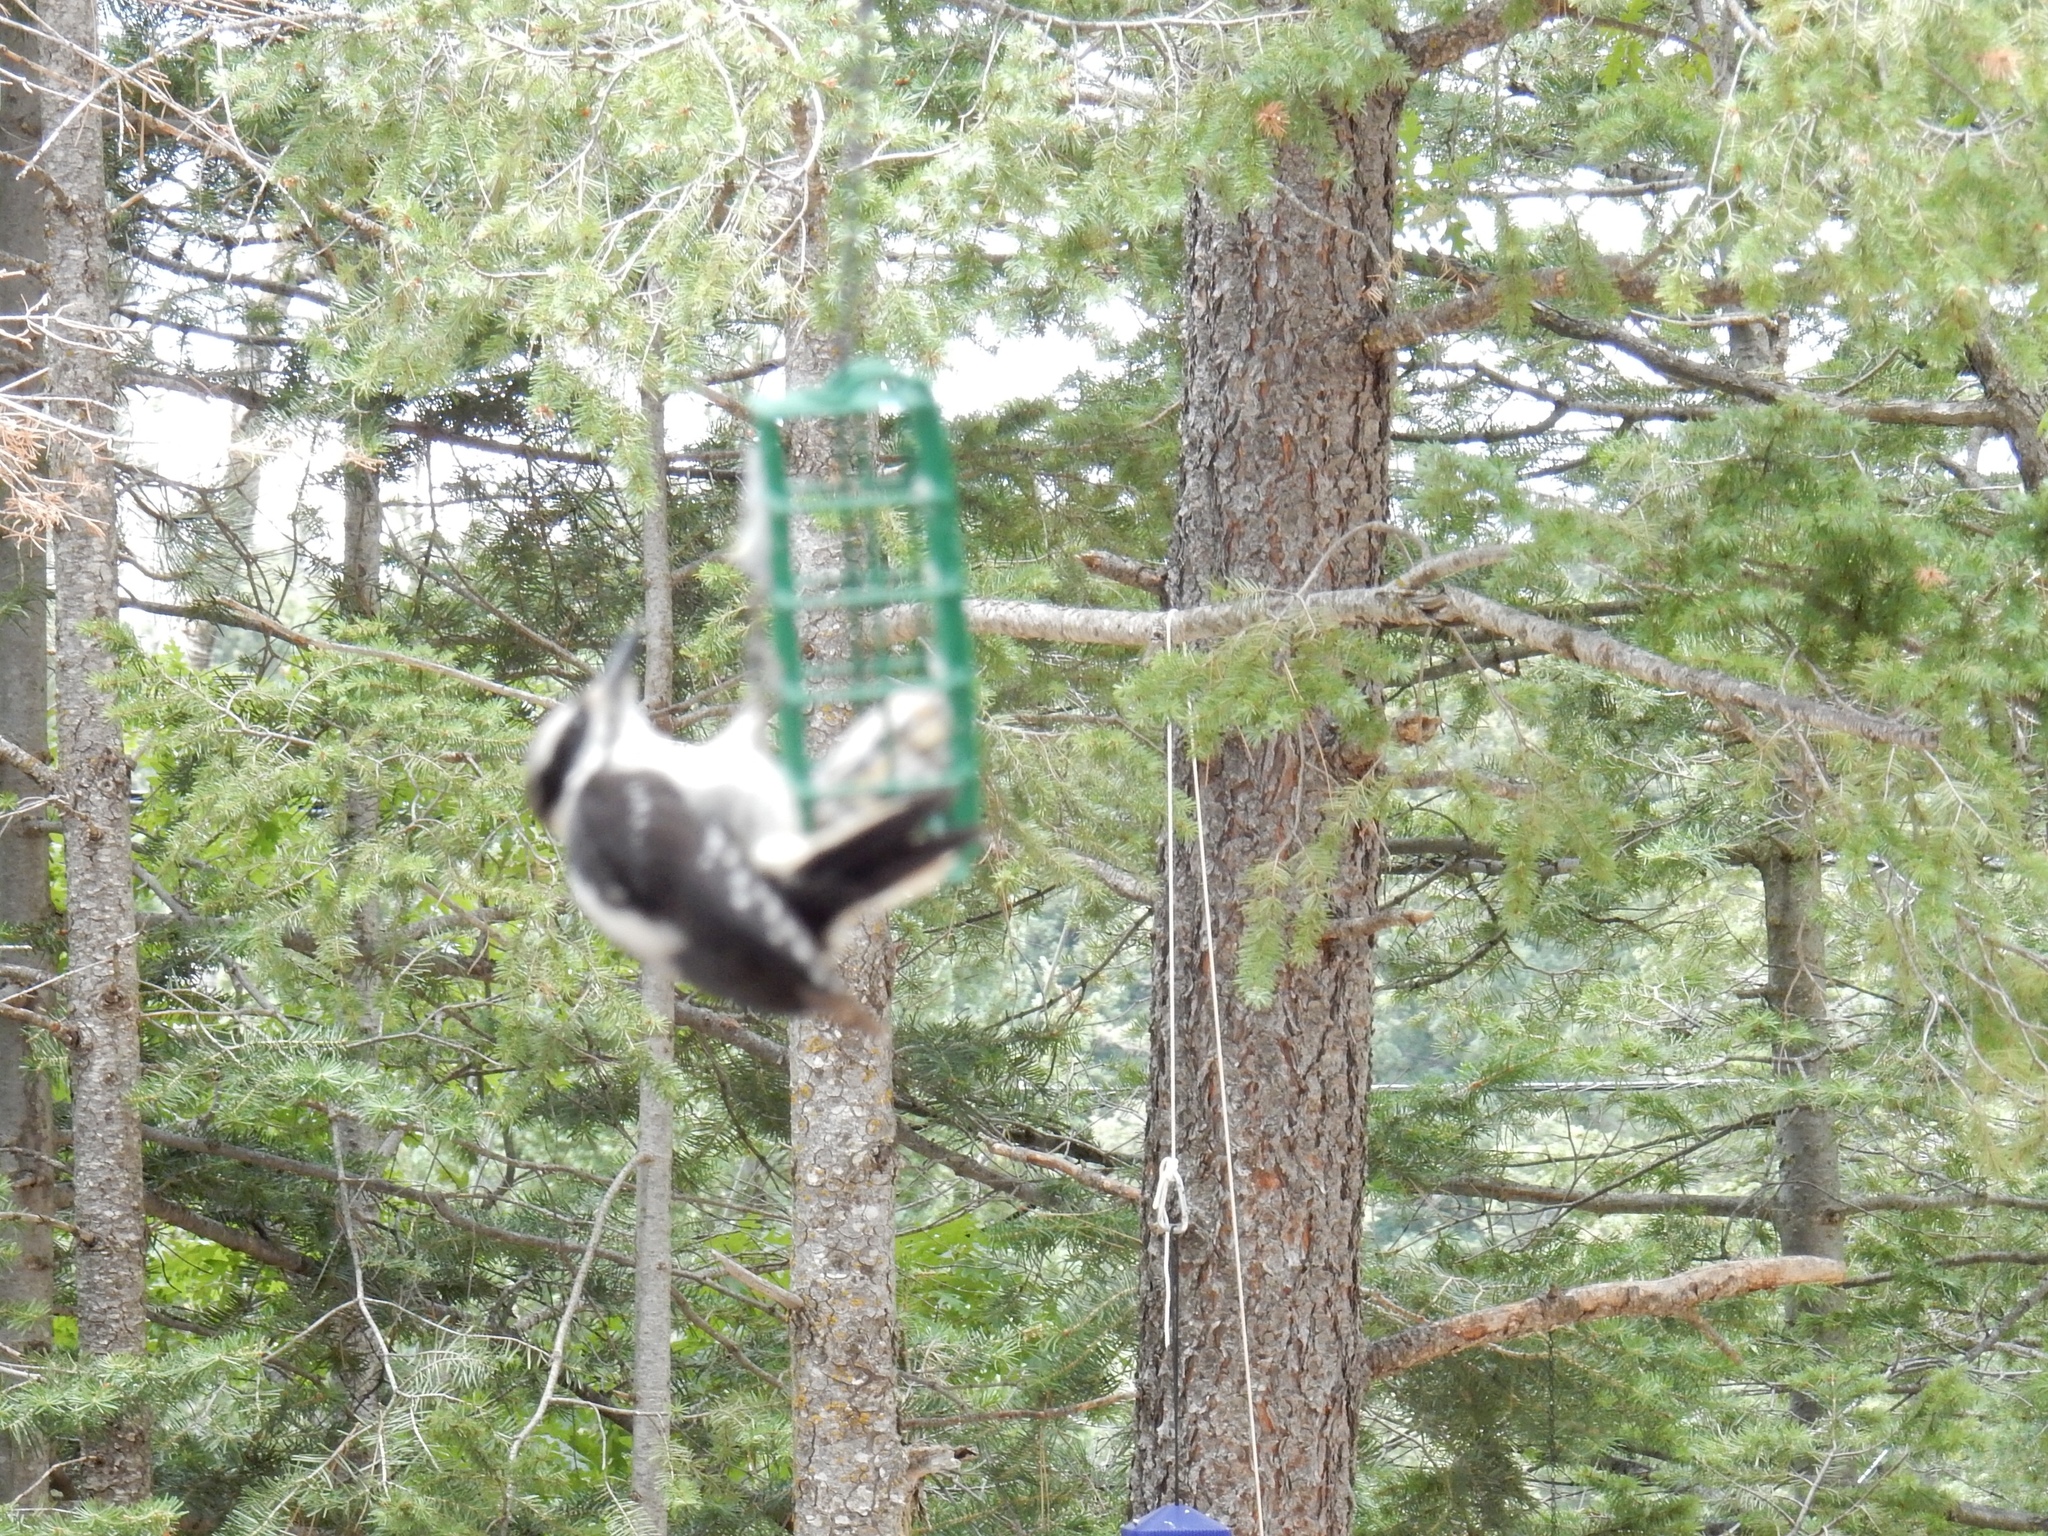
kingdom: Animalia
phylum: Chordata
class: Aves
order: Piciformes
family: Picidae
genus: Leuconotopicus
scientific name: Leuconotopicus villosus
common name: Hairy woodpecker
